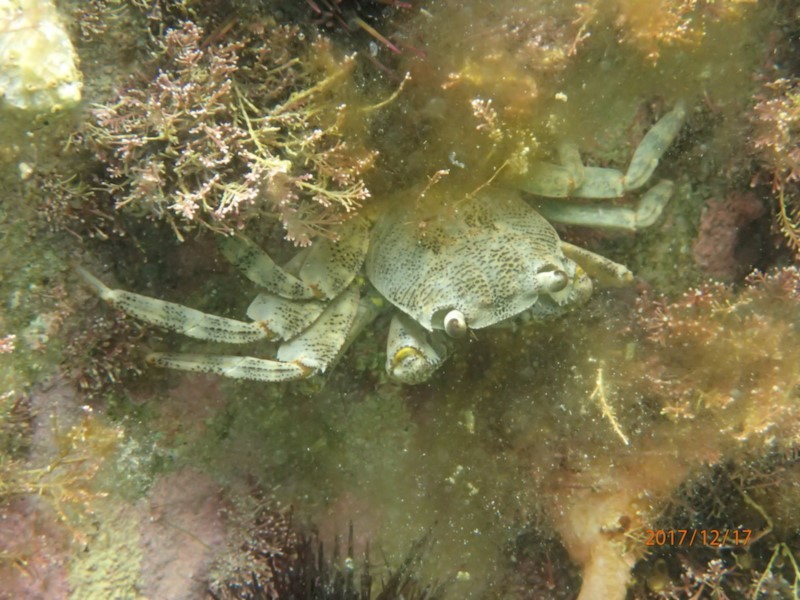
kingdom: Animalia
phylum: Arthropoda
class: Malacostraca
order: Decapoda
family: Grapsidae
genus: Leptograpsus
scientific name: Leptograpsus variegatus
